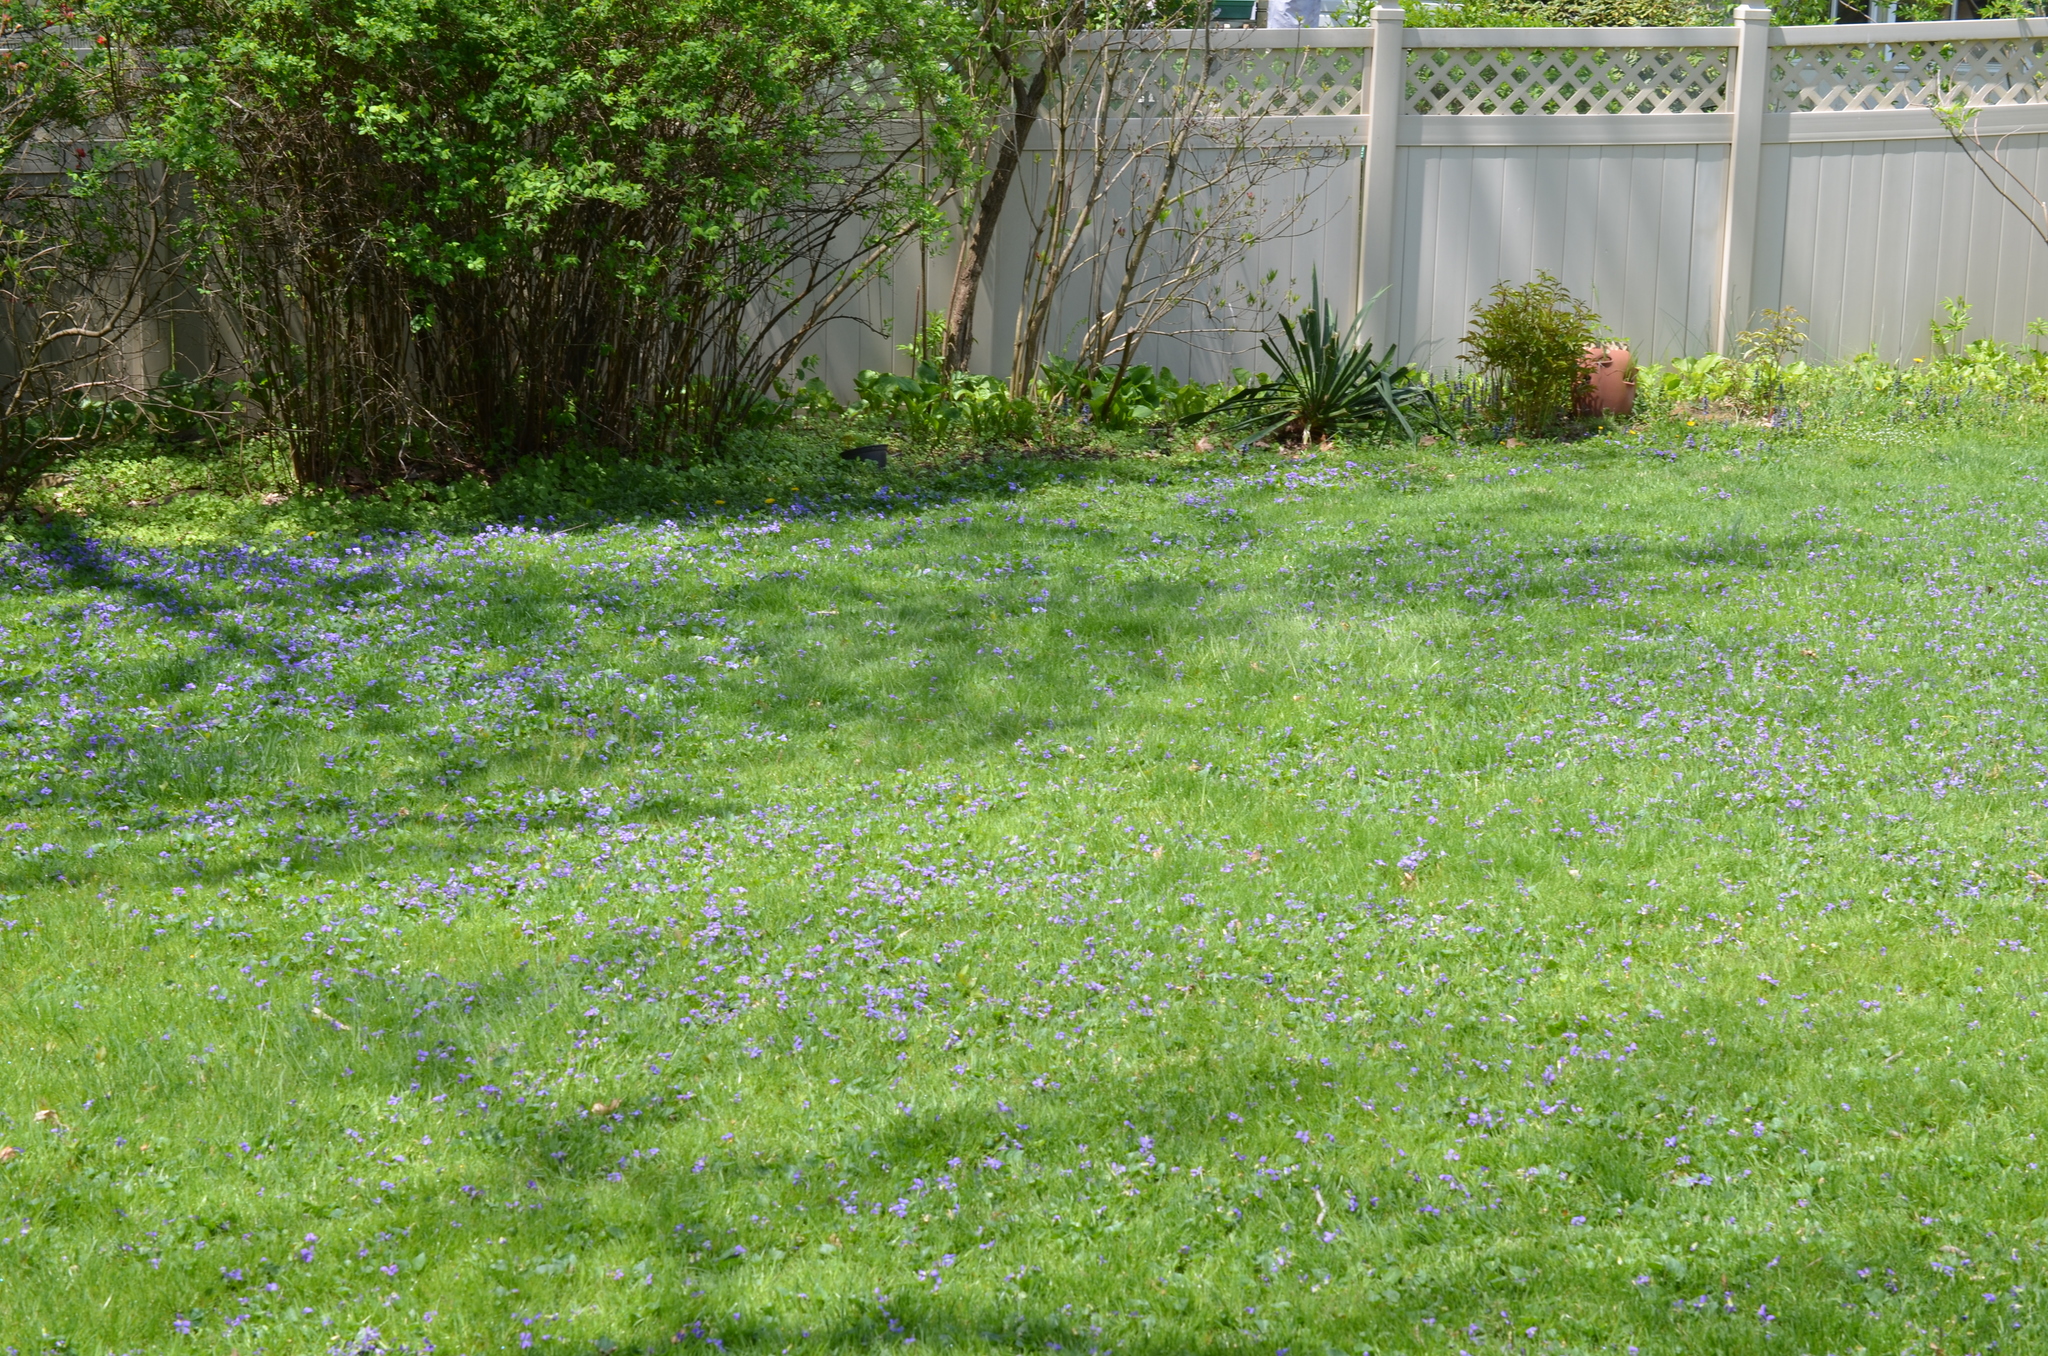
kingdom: Plantae
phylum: Tracheophyta
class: Magnoliopsida
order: Malpighiales
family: Violaceae
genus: Viola
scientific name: Viola sororia
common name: Dooryard violet
